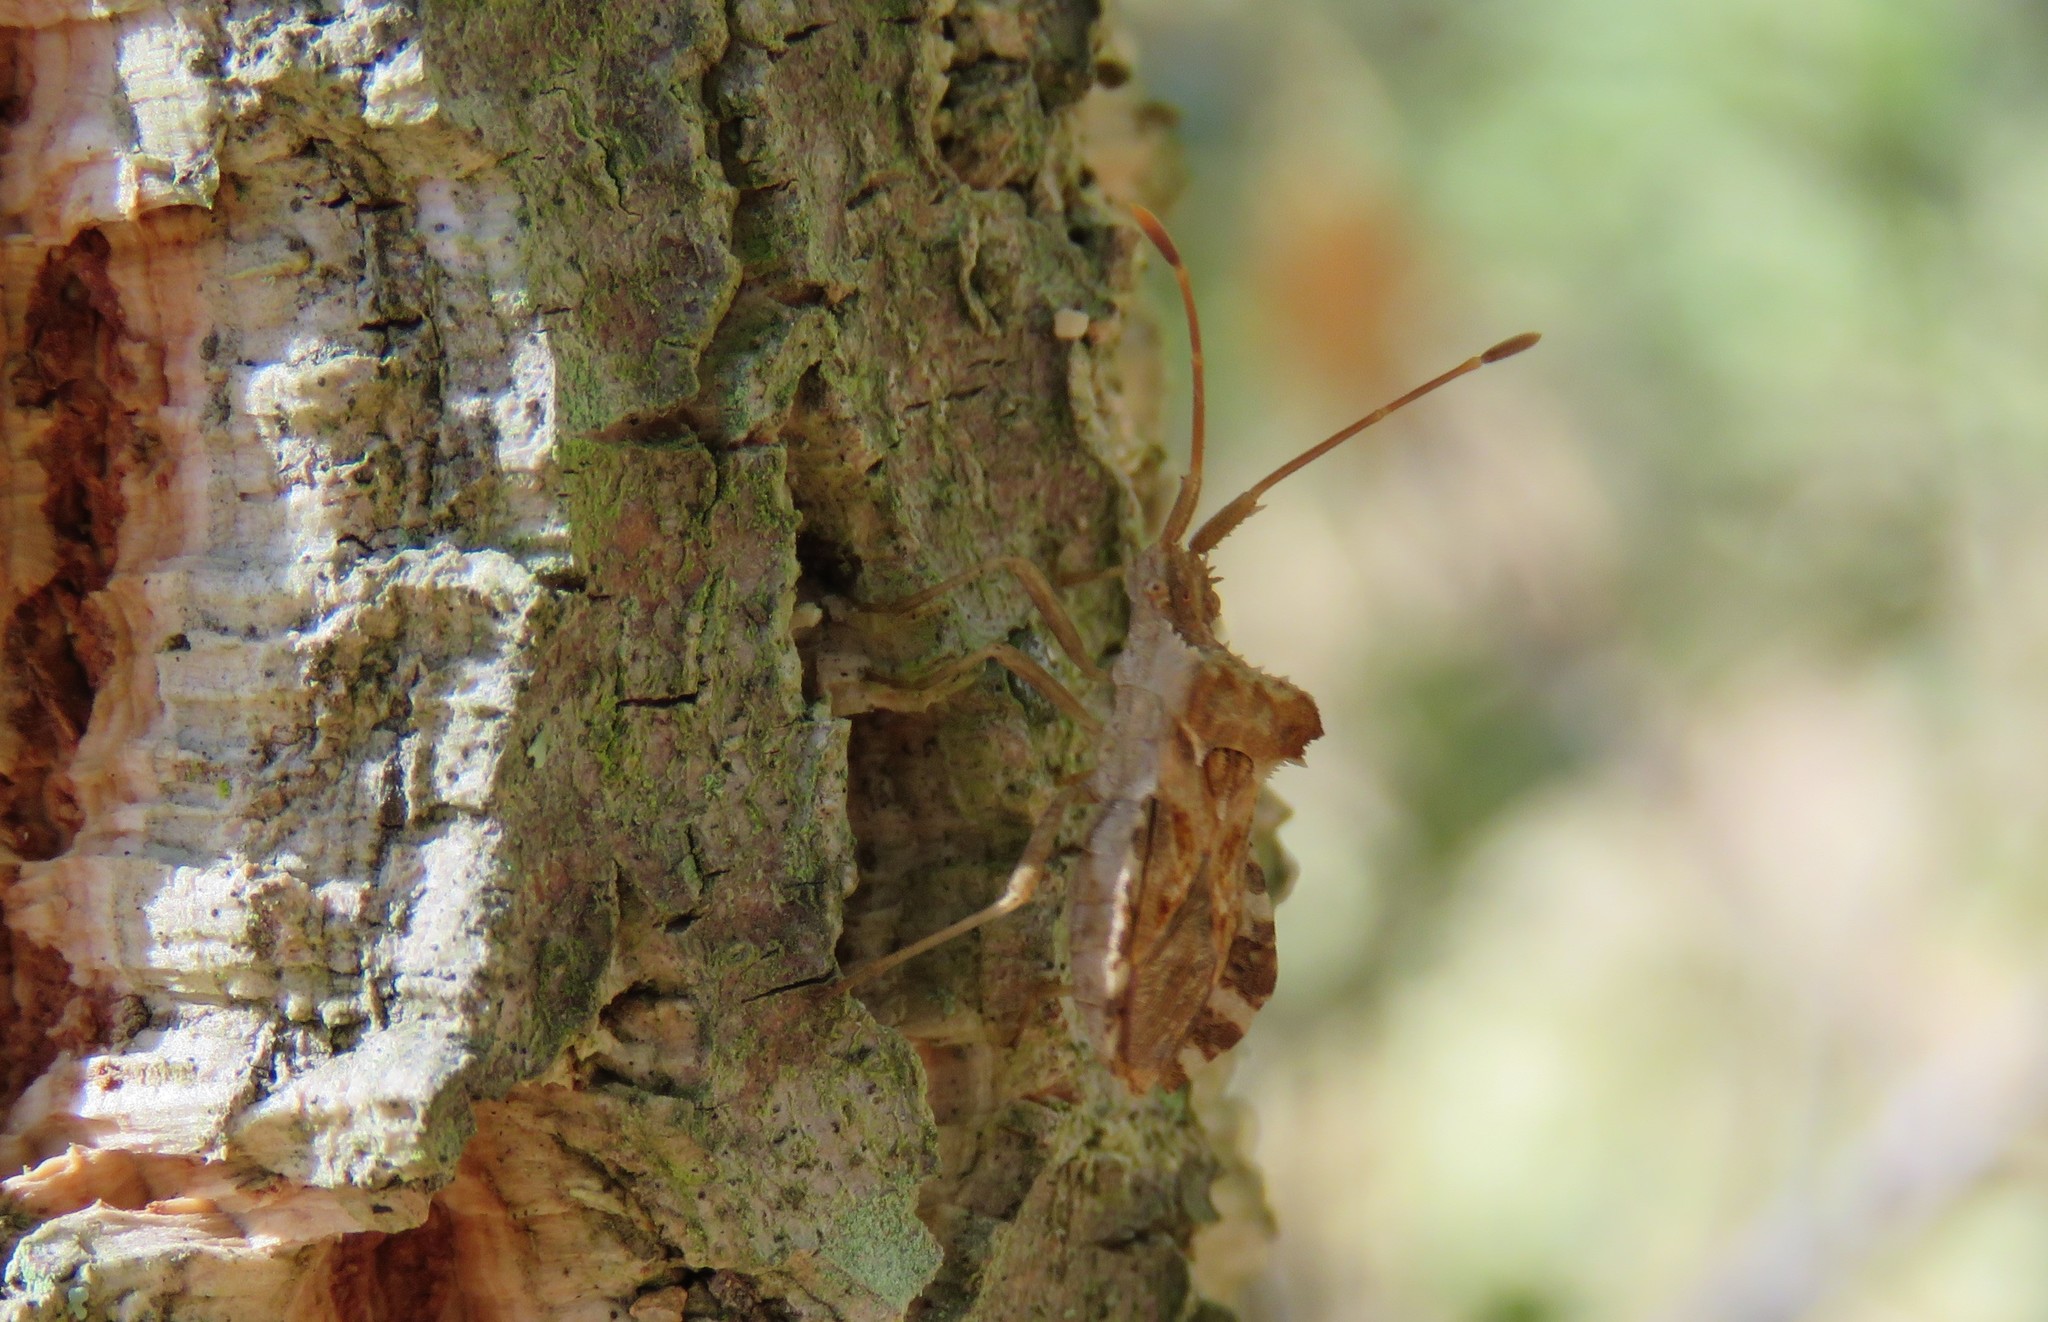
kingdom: Animalia
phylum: Arthropoda
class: Insecta
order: Hemiptera
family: Coreidae
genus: Centrocoris
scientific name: Centrocoris spiniger
